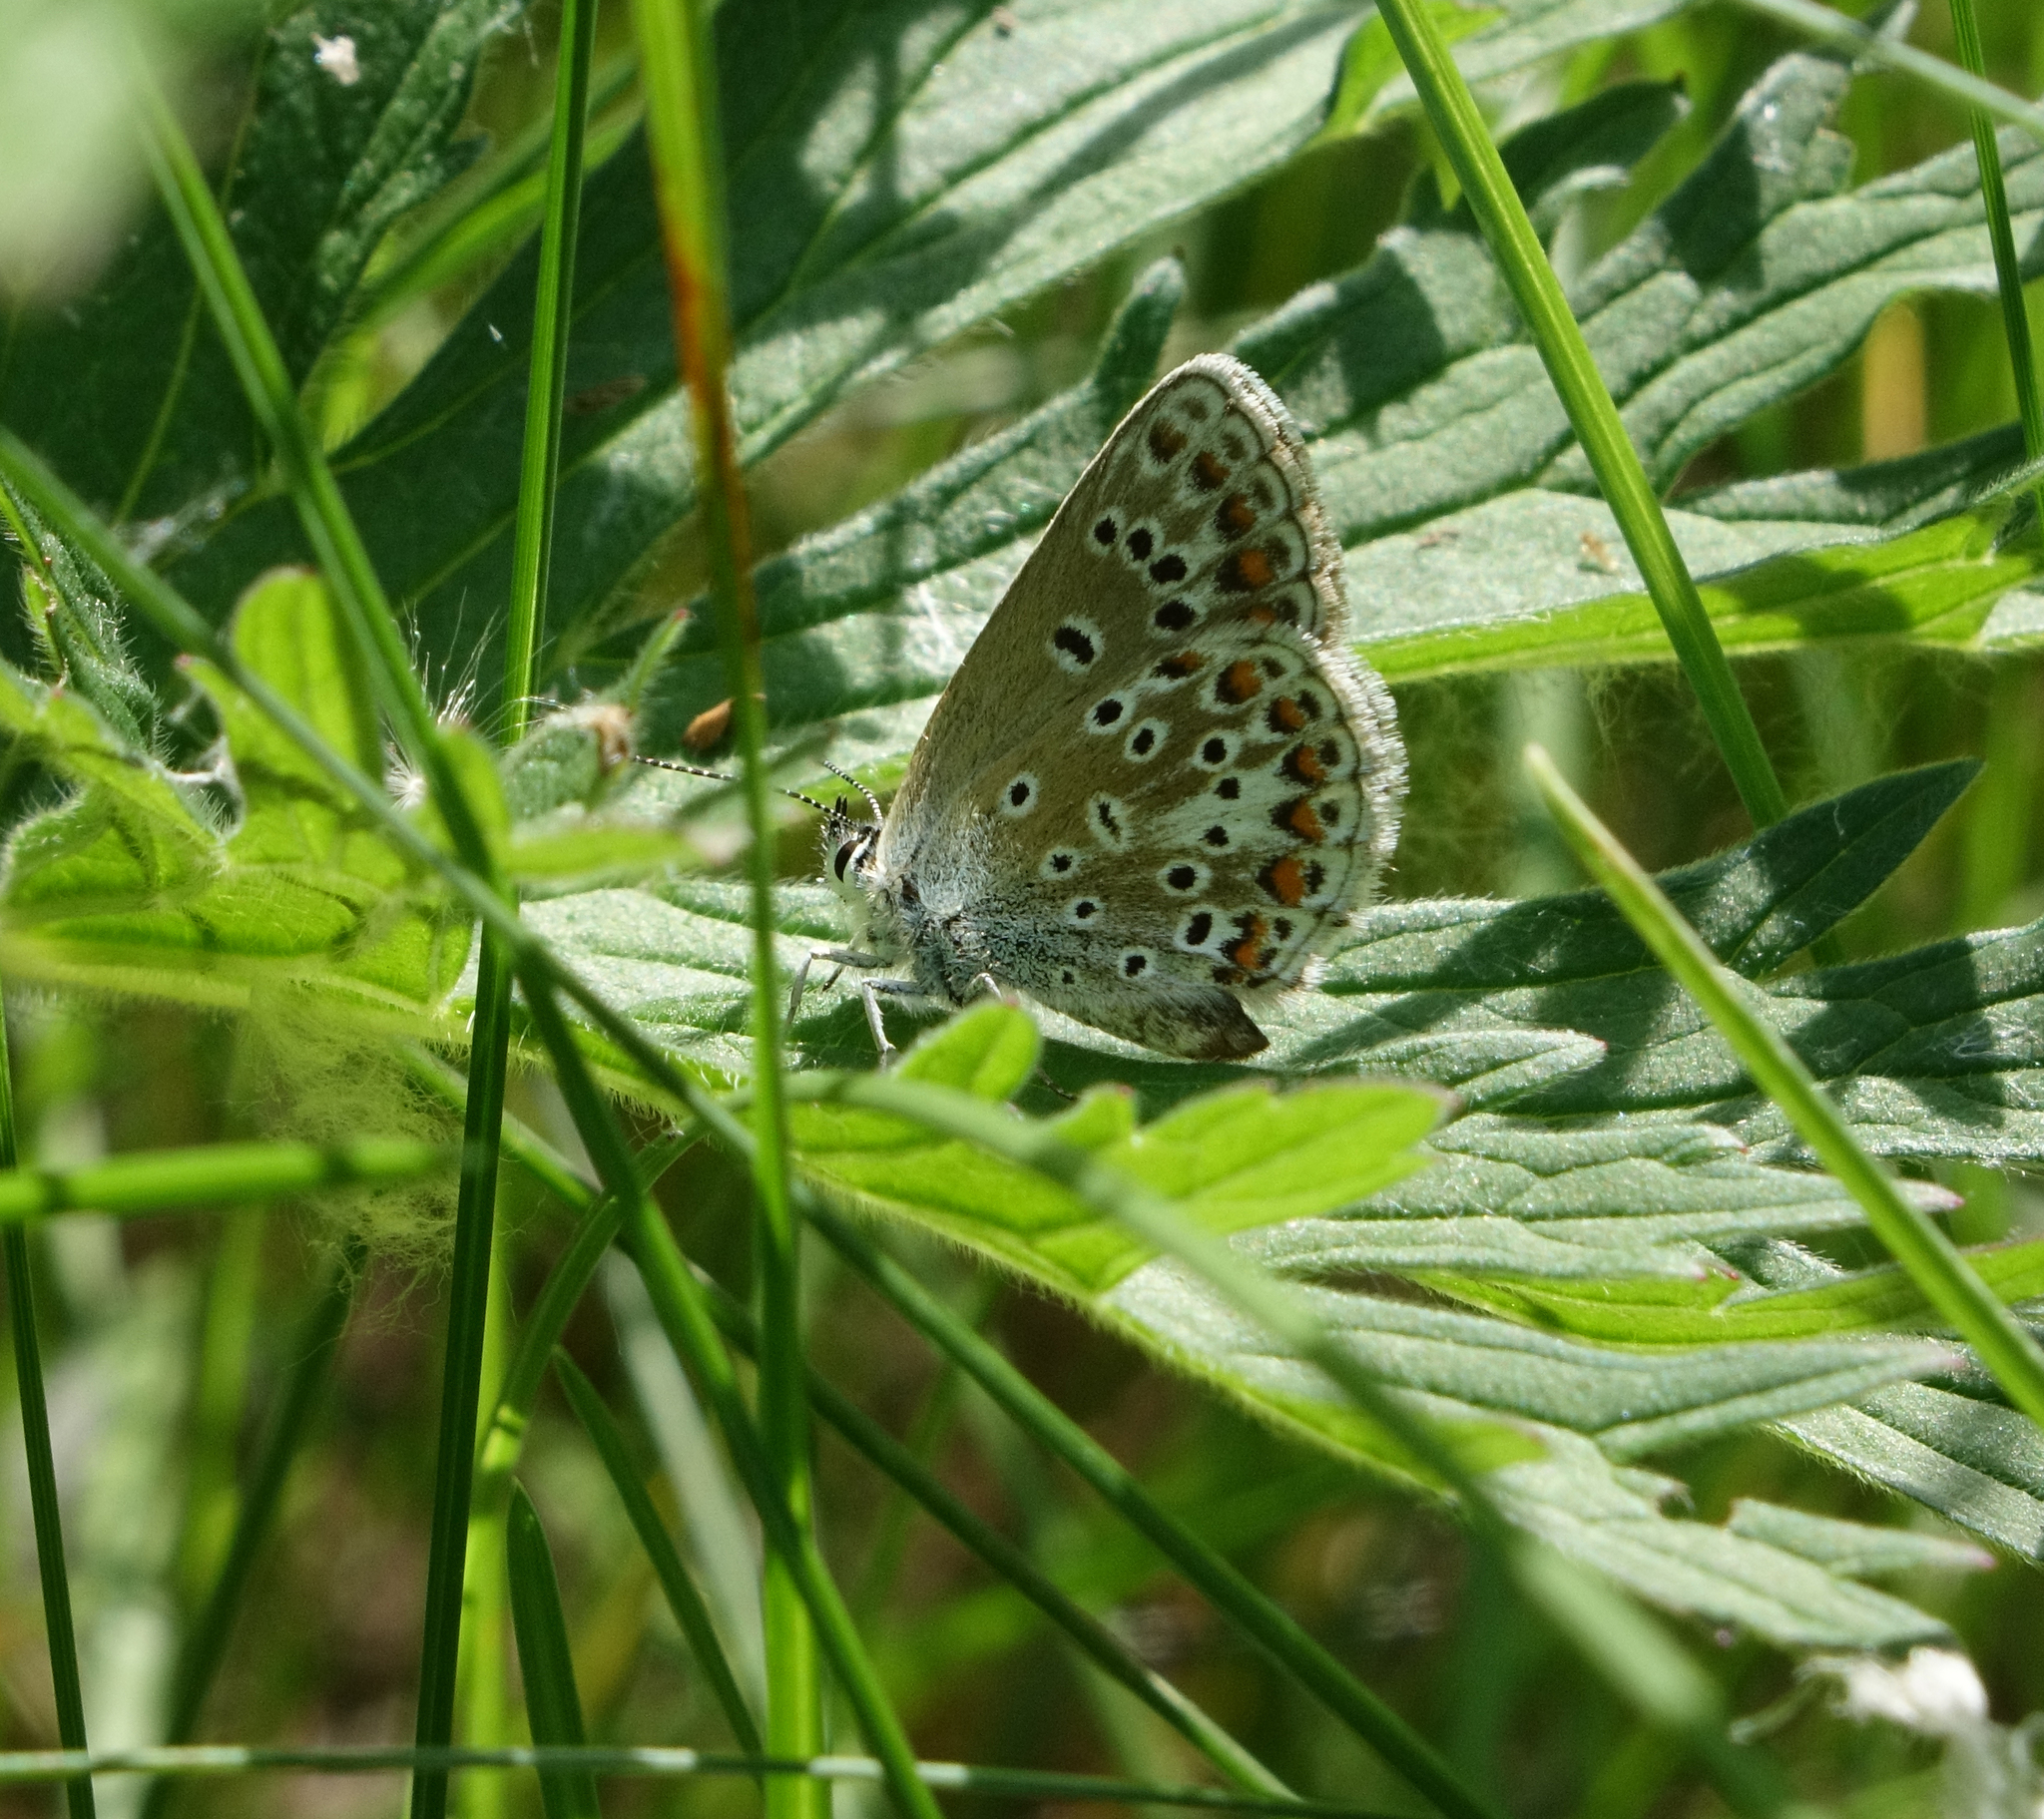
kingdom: Animalia
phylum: Arthropoda
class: Insecta
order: Lepidoptera
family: Lycaenidae
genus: Aricia
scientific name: Aricia artaxerxes
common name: Northern brown argus
